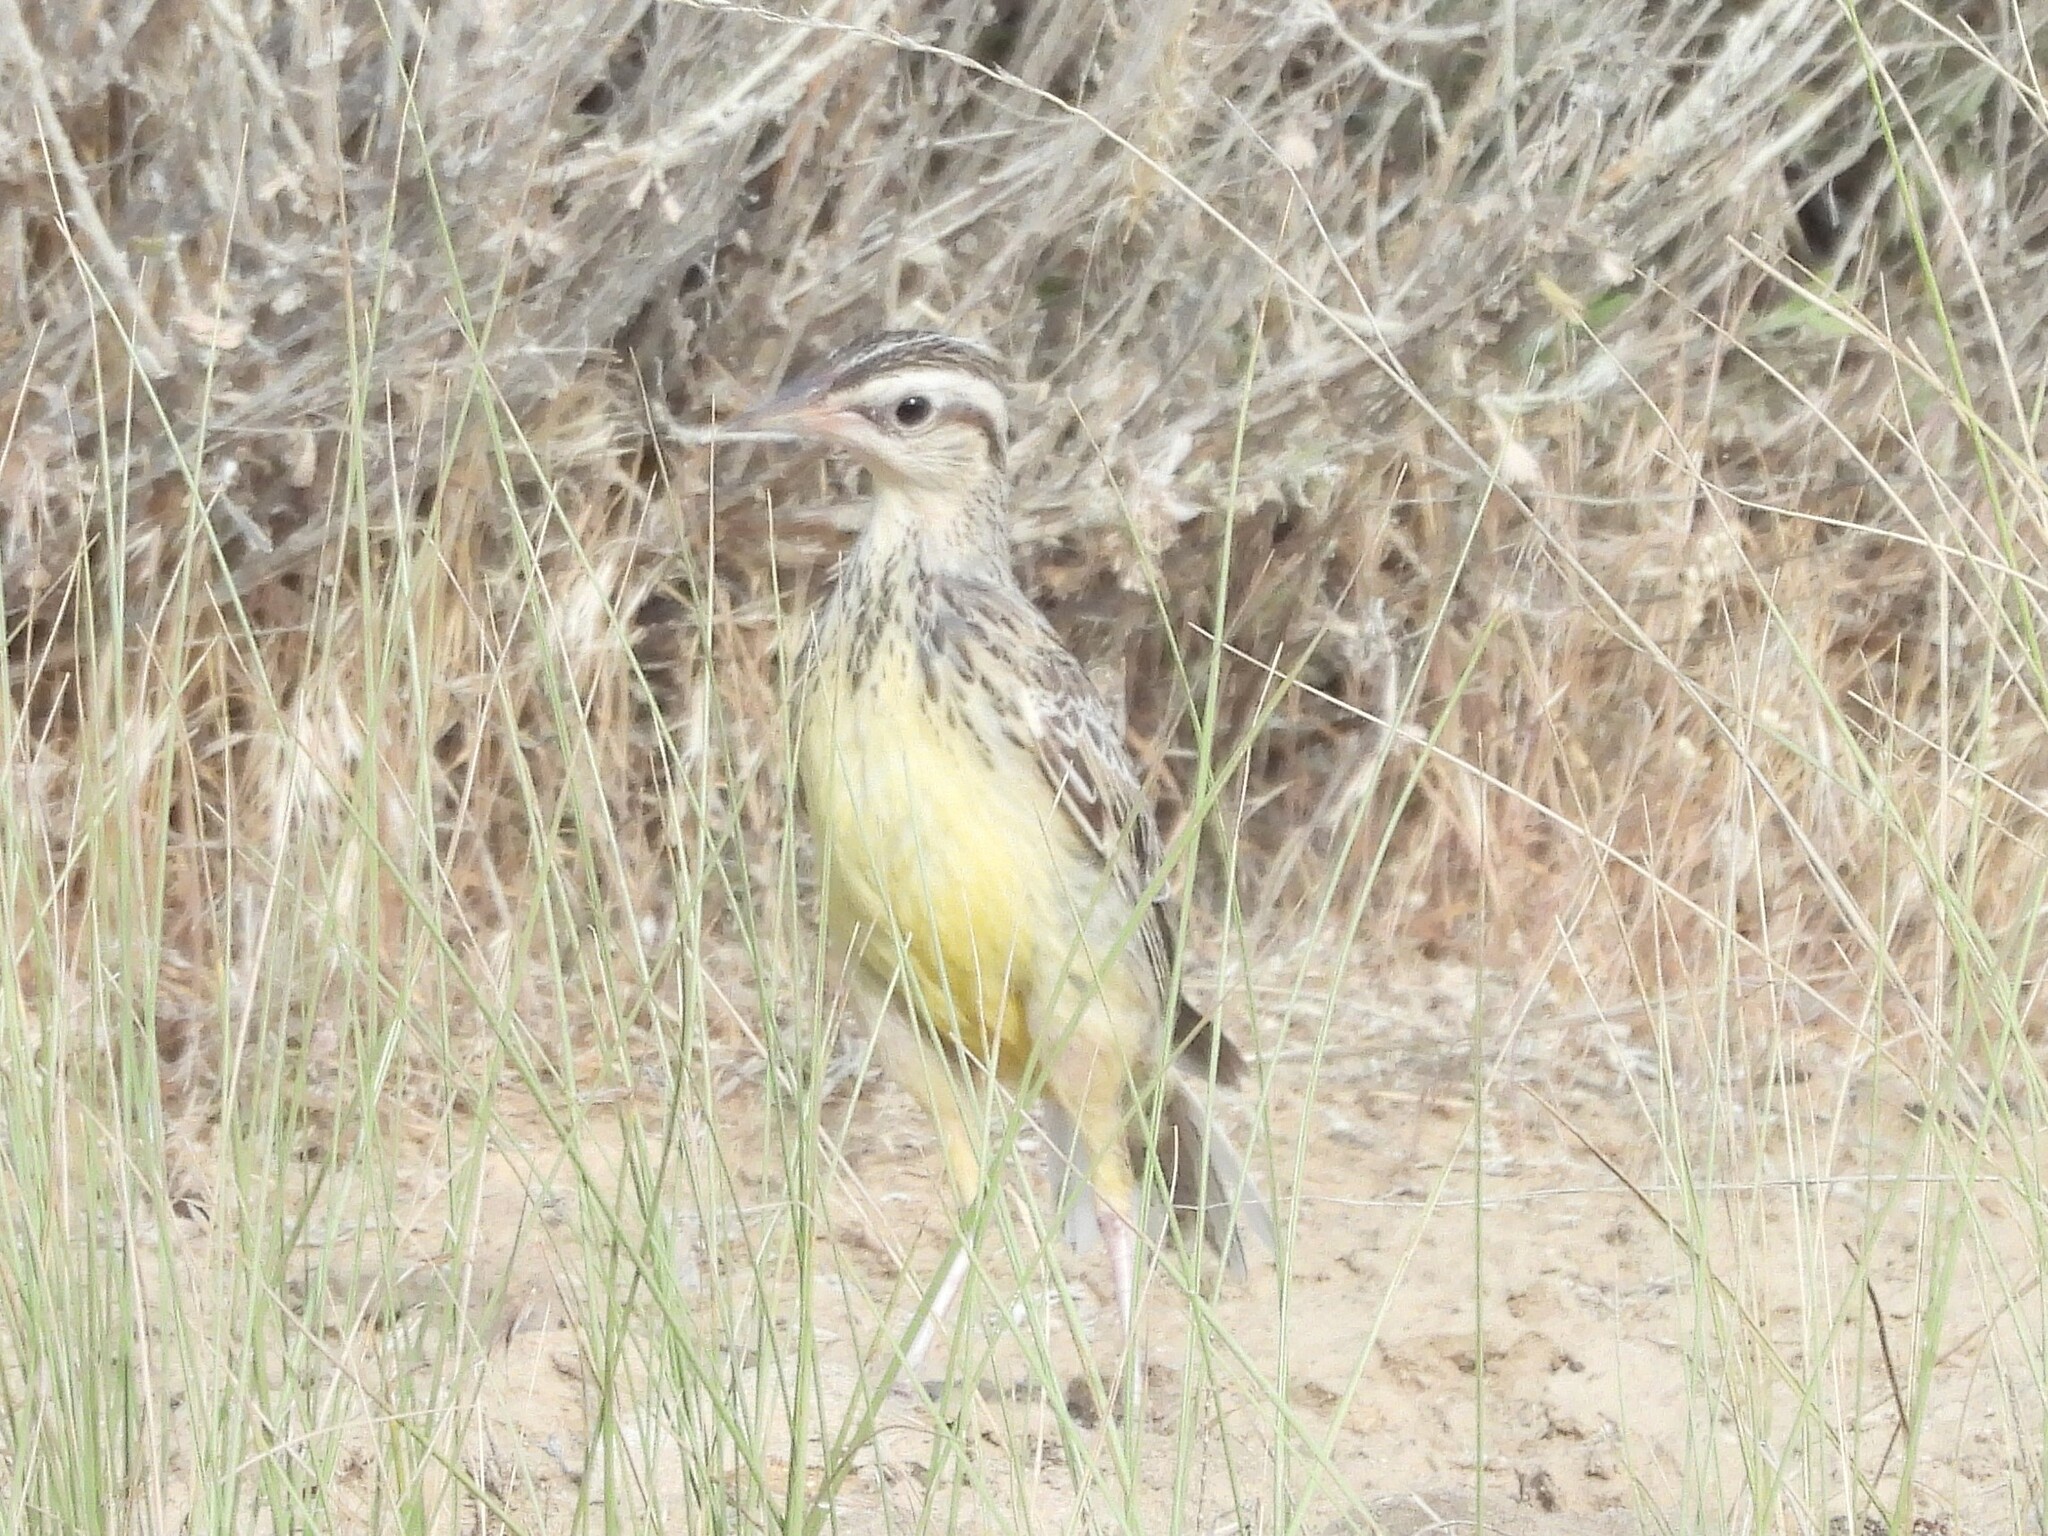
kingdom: Animalia
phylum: Chordata
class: Aves
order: Passeriformes
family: Icteridae
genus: Sturnella
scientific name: Sturnella neglecta
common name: Western meadowlark
